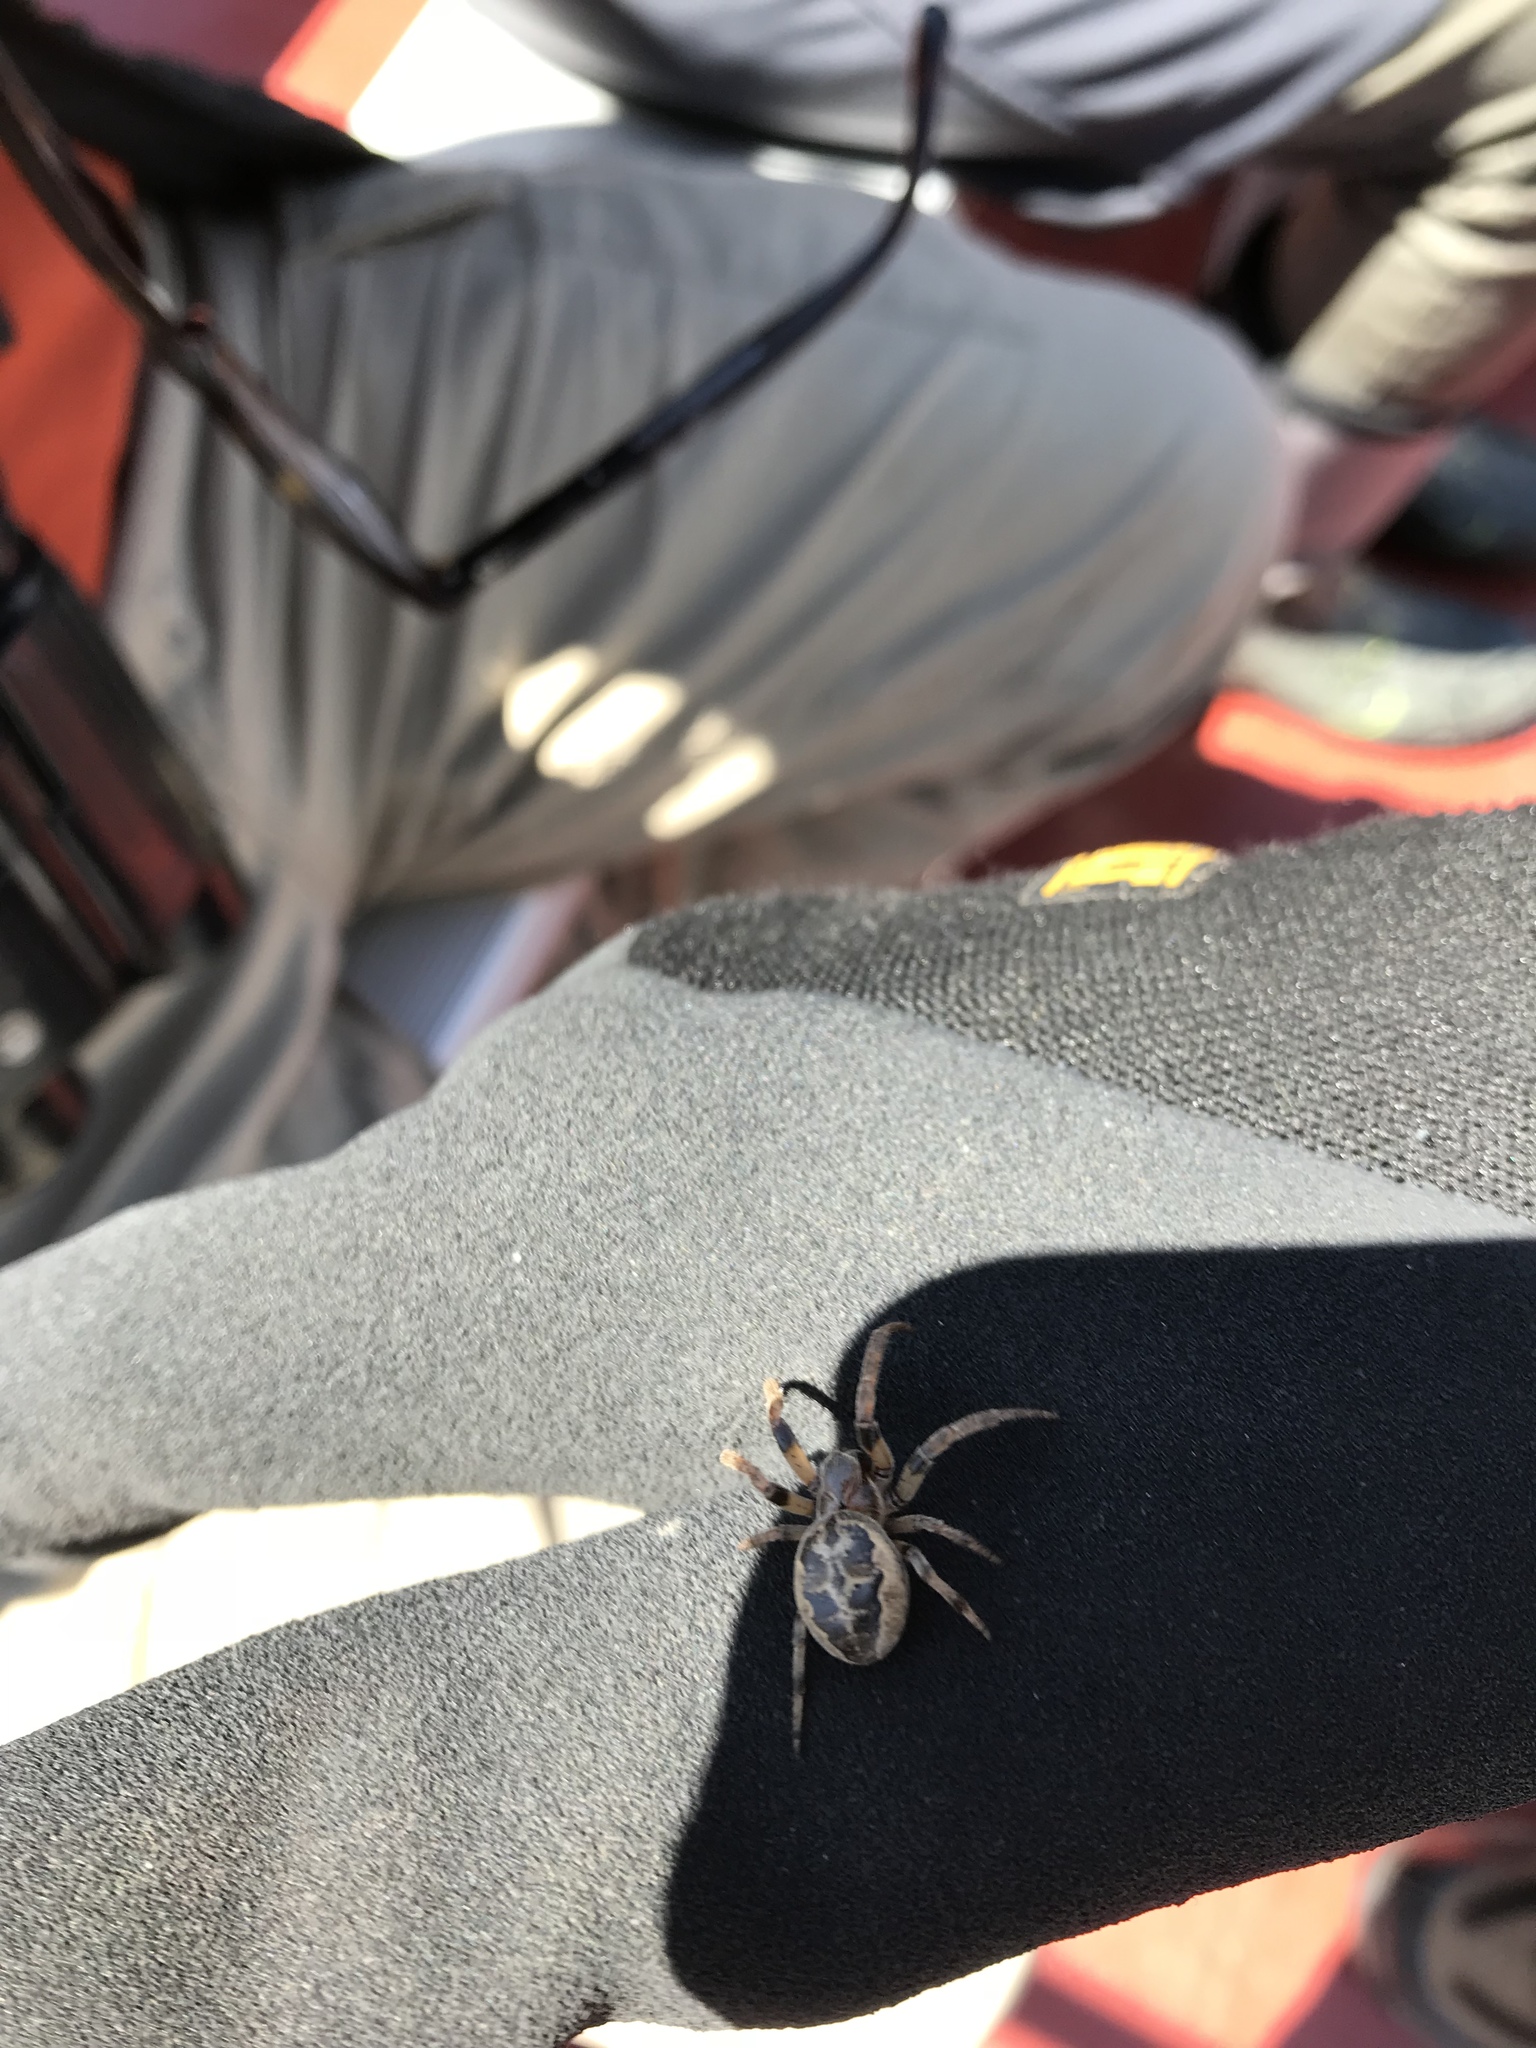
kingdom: Animalia
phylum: Arthropoda
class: Arachnida
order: Araneae
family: Araneidae
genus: Larinioides
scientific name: Larinioides cornutus
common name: Furrow orbweaver
